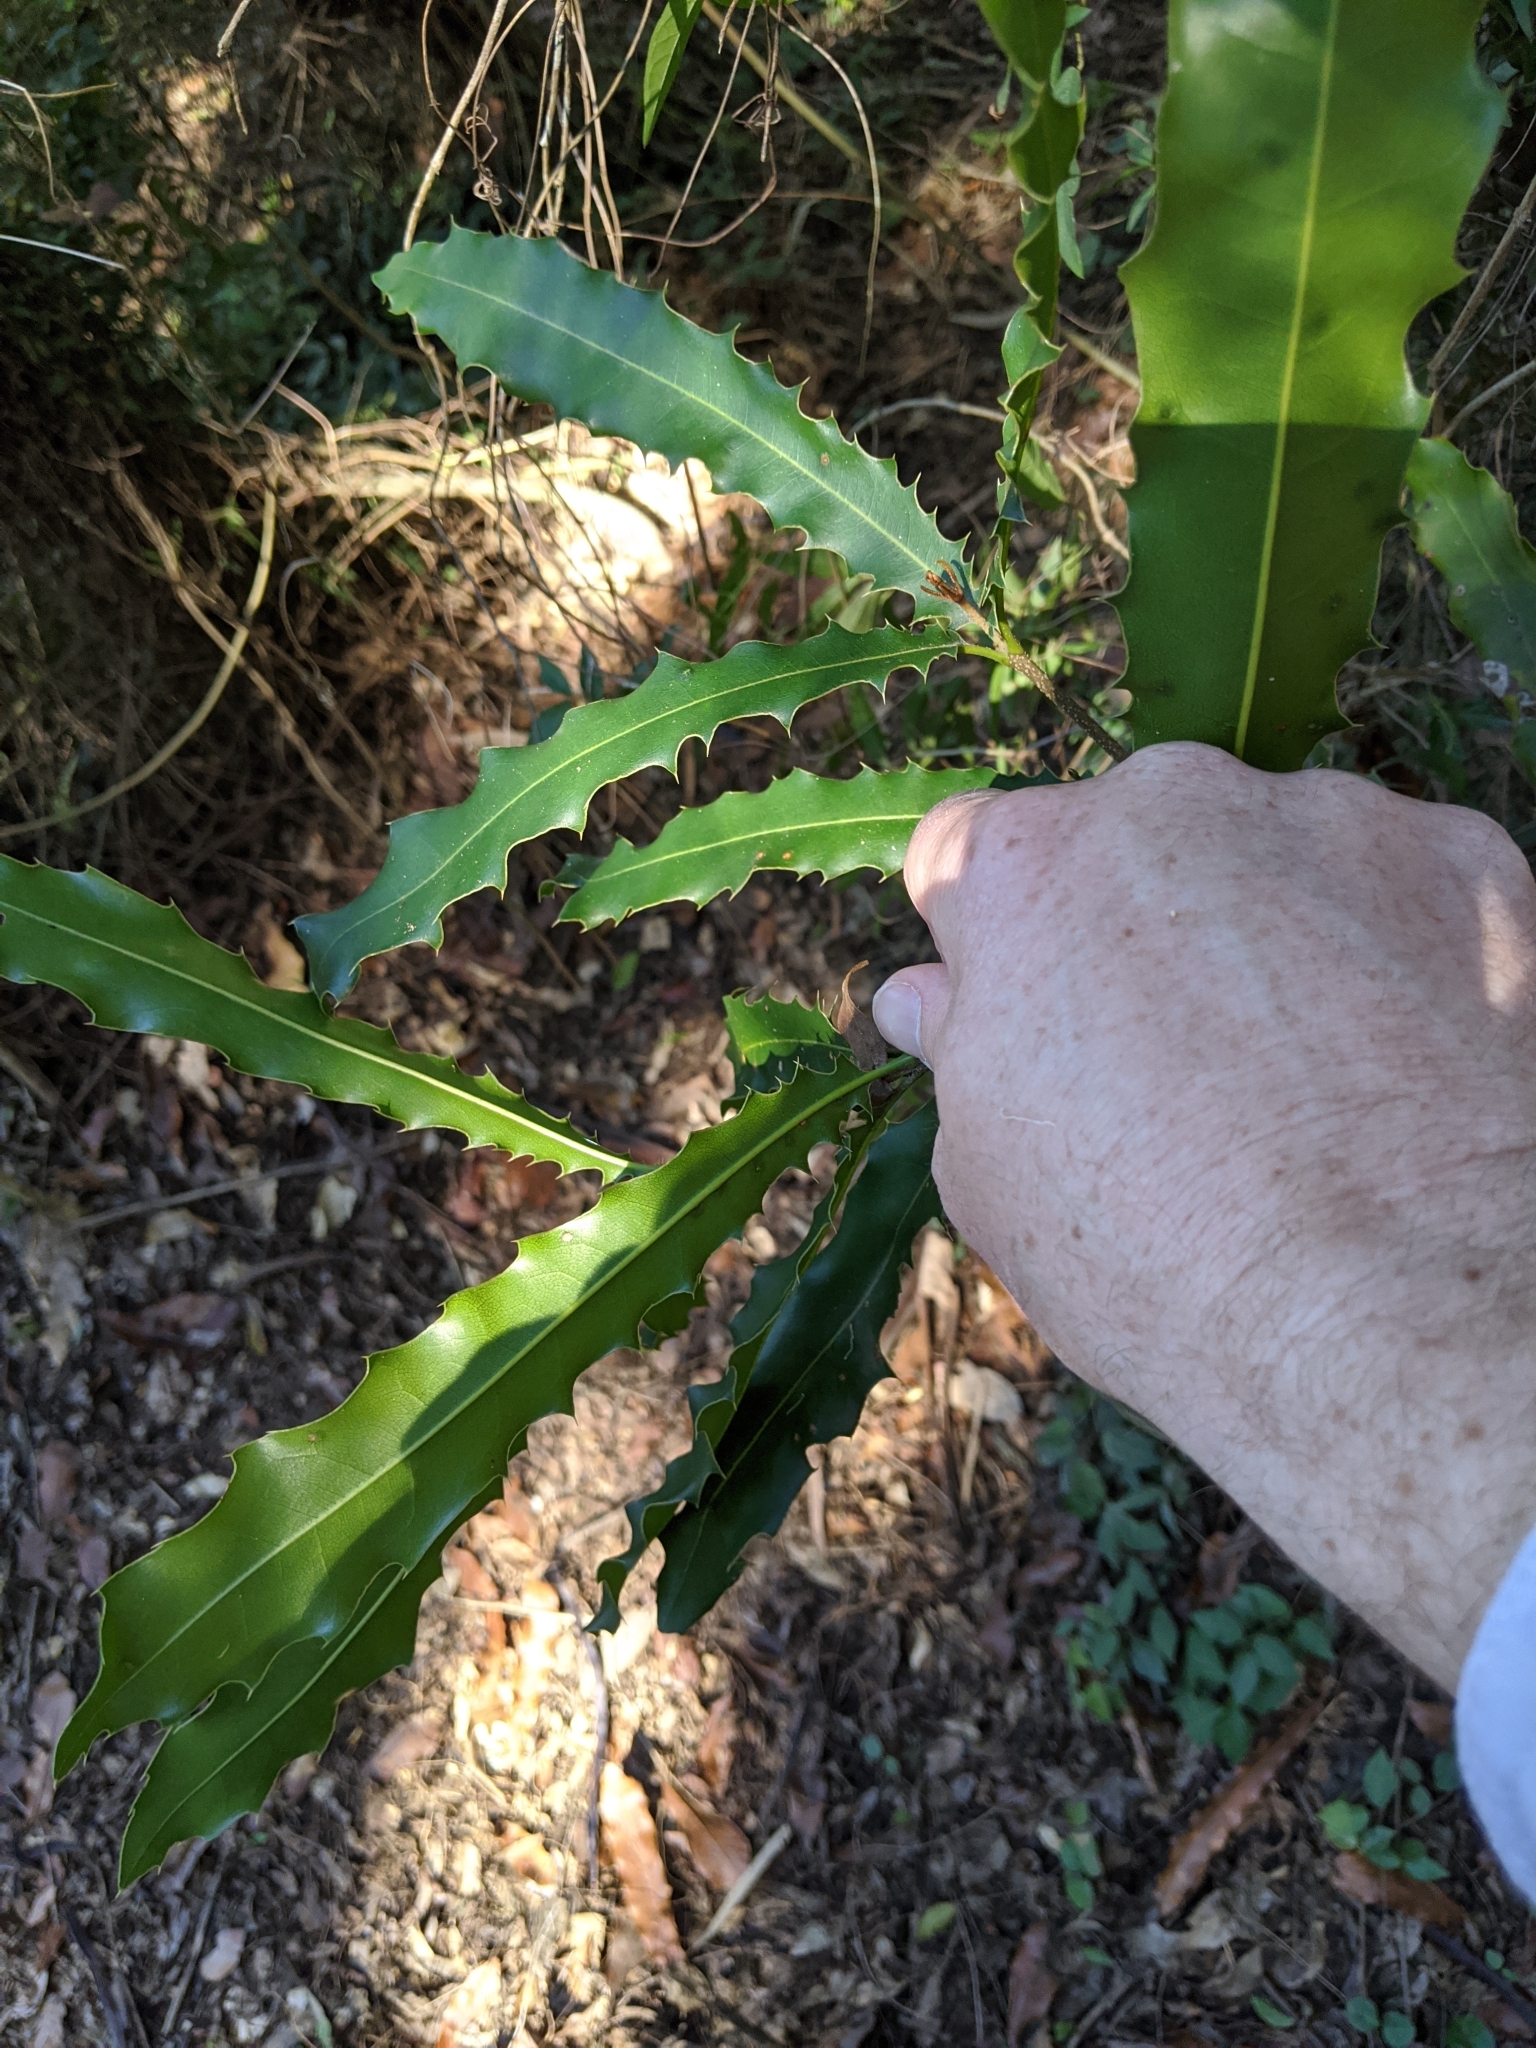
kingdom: Plantae
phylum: Tracheophyta
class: Magnoliopsida
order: Proteales
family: Proteaceae
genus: Macadamia
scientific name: Macadamia integrifolia
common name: Macadamia
